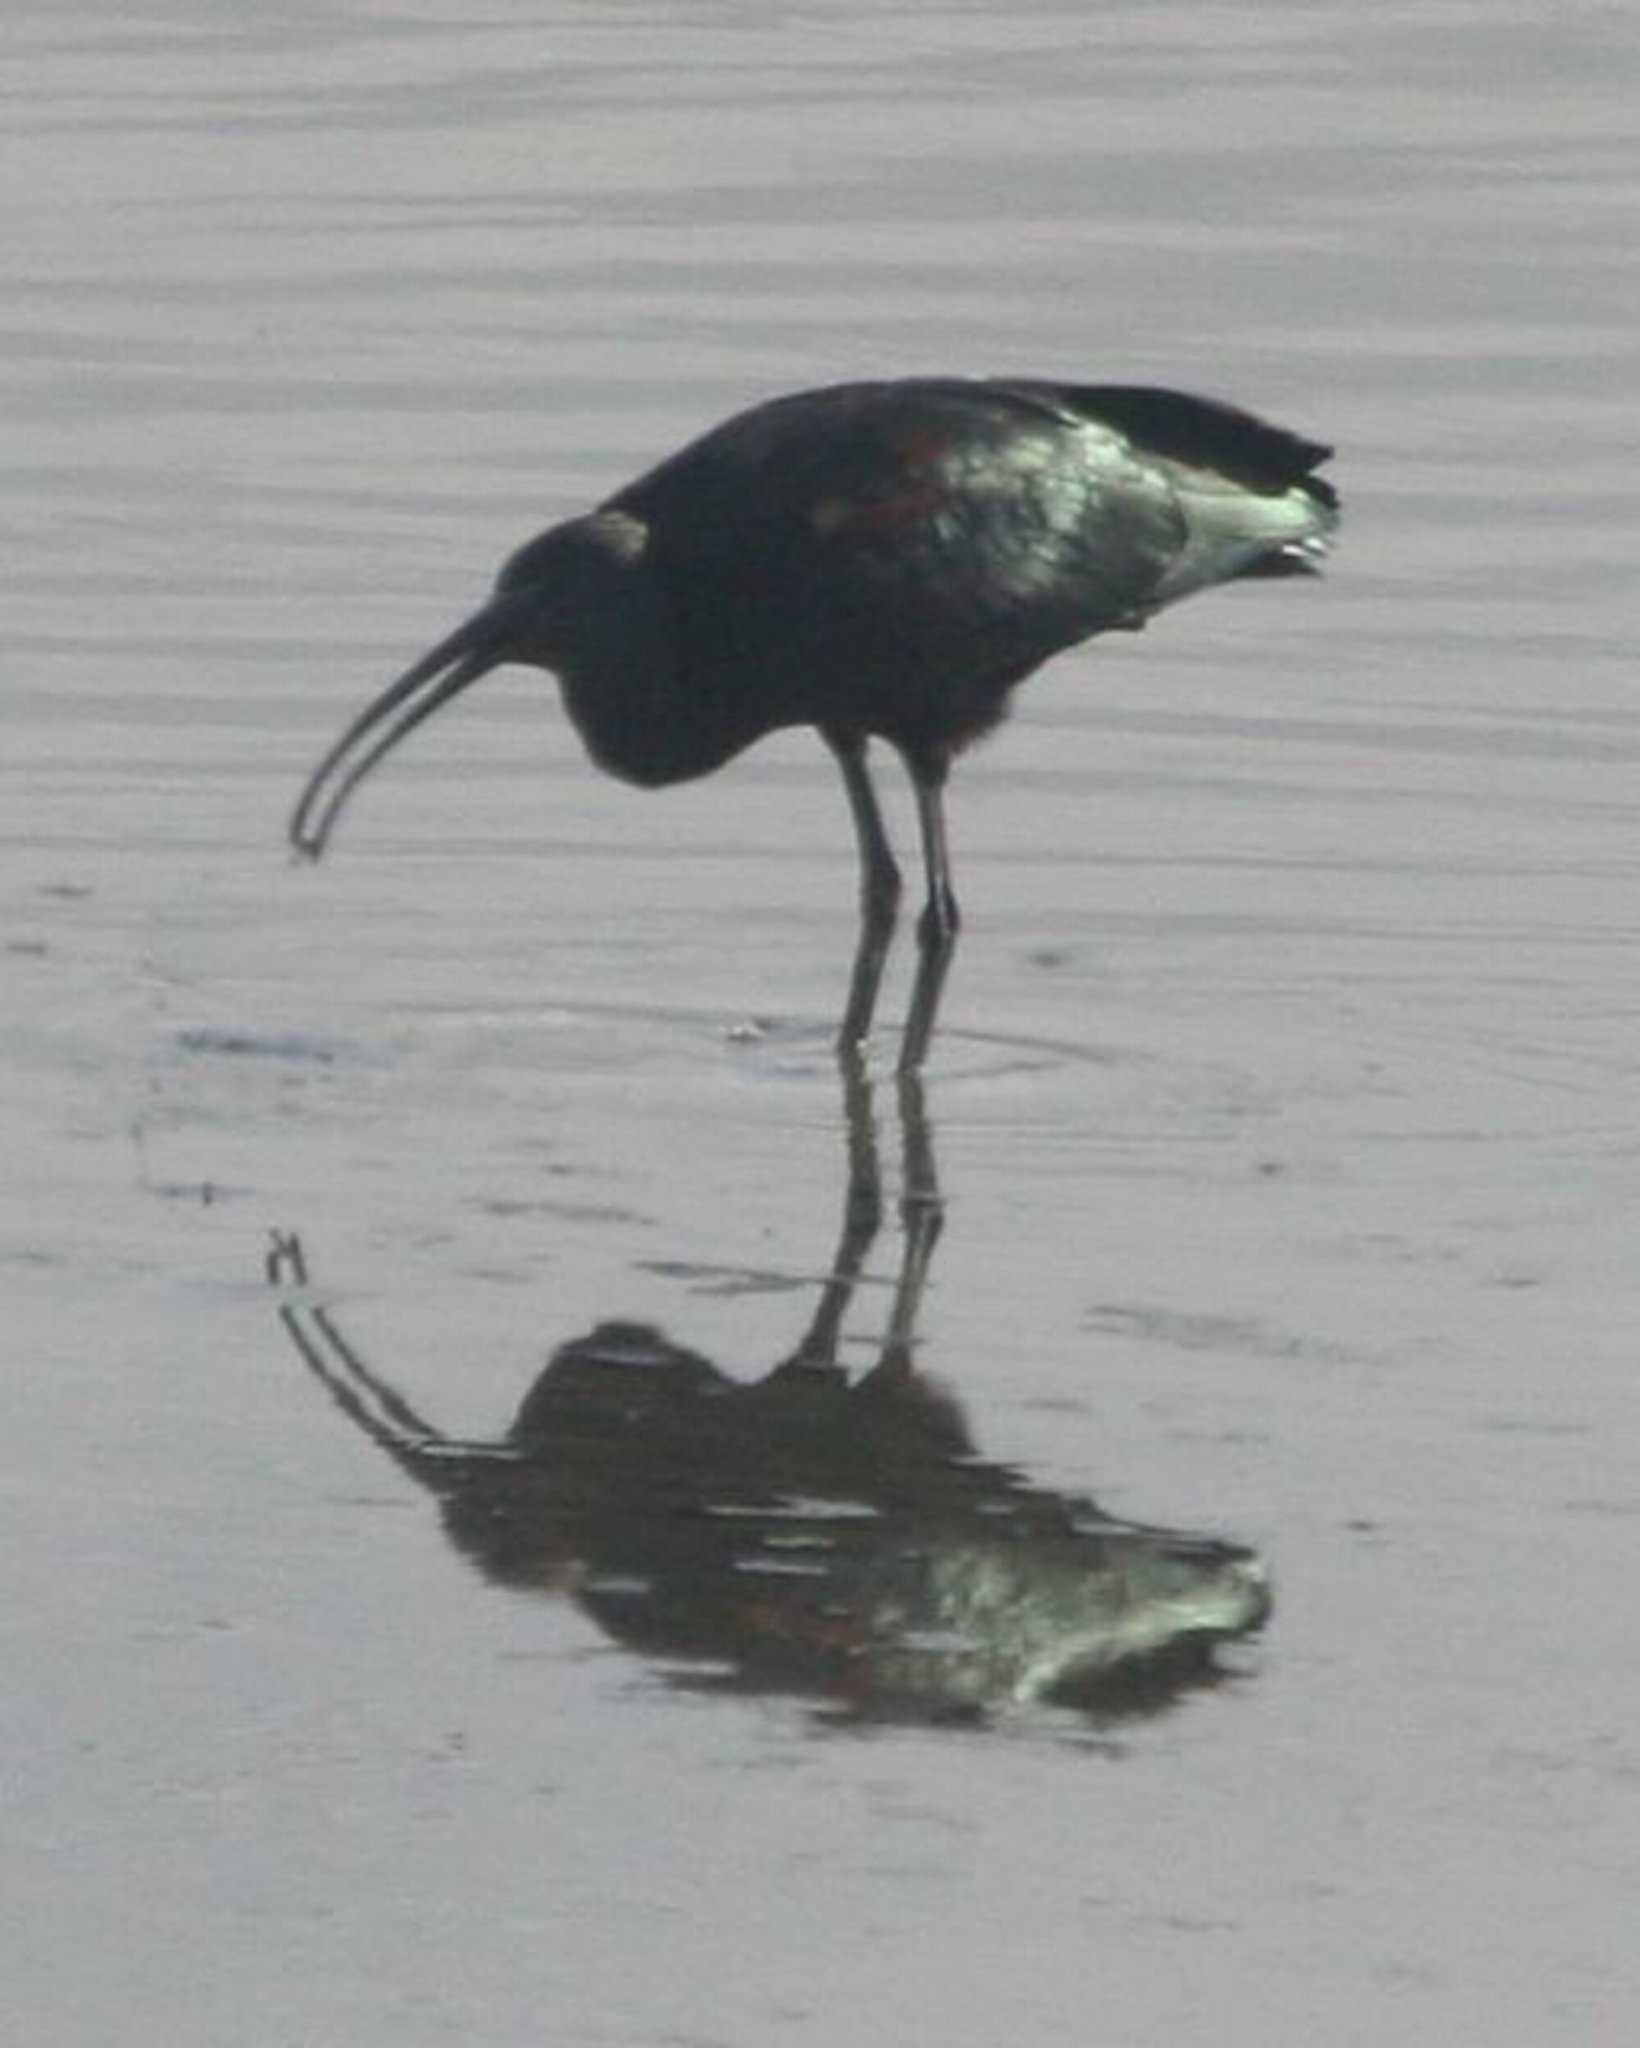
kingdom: Animalia
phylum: Chordata
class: Aves
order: Pelecaniformes
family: Threskiornithidae
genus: Plegadis
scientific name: Plegadis falcinellus
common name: Glossy ibis
